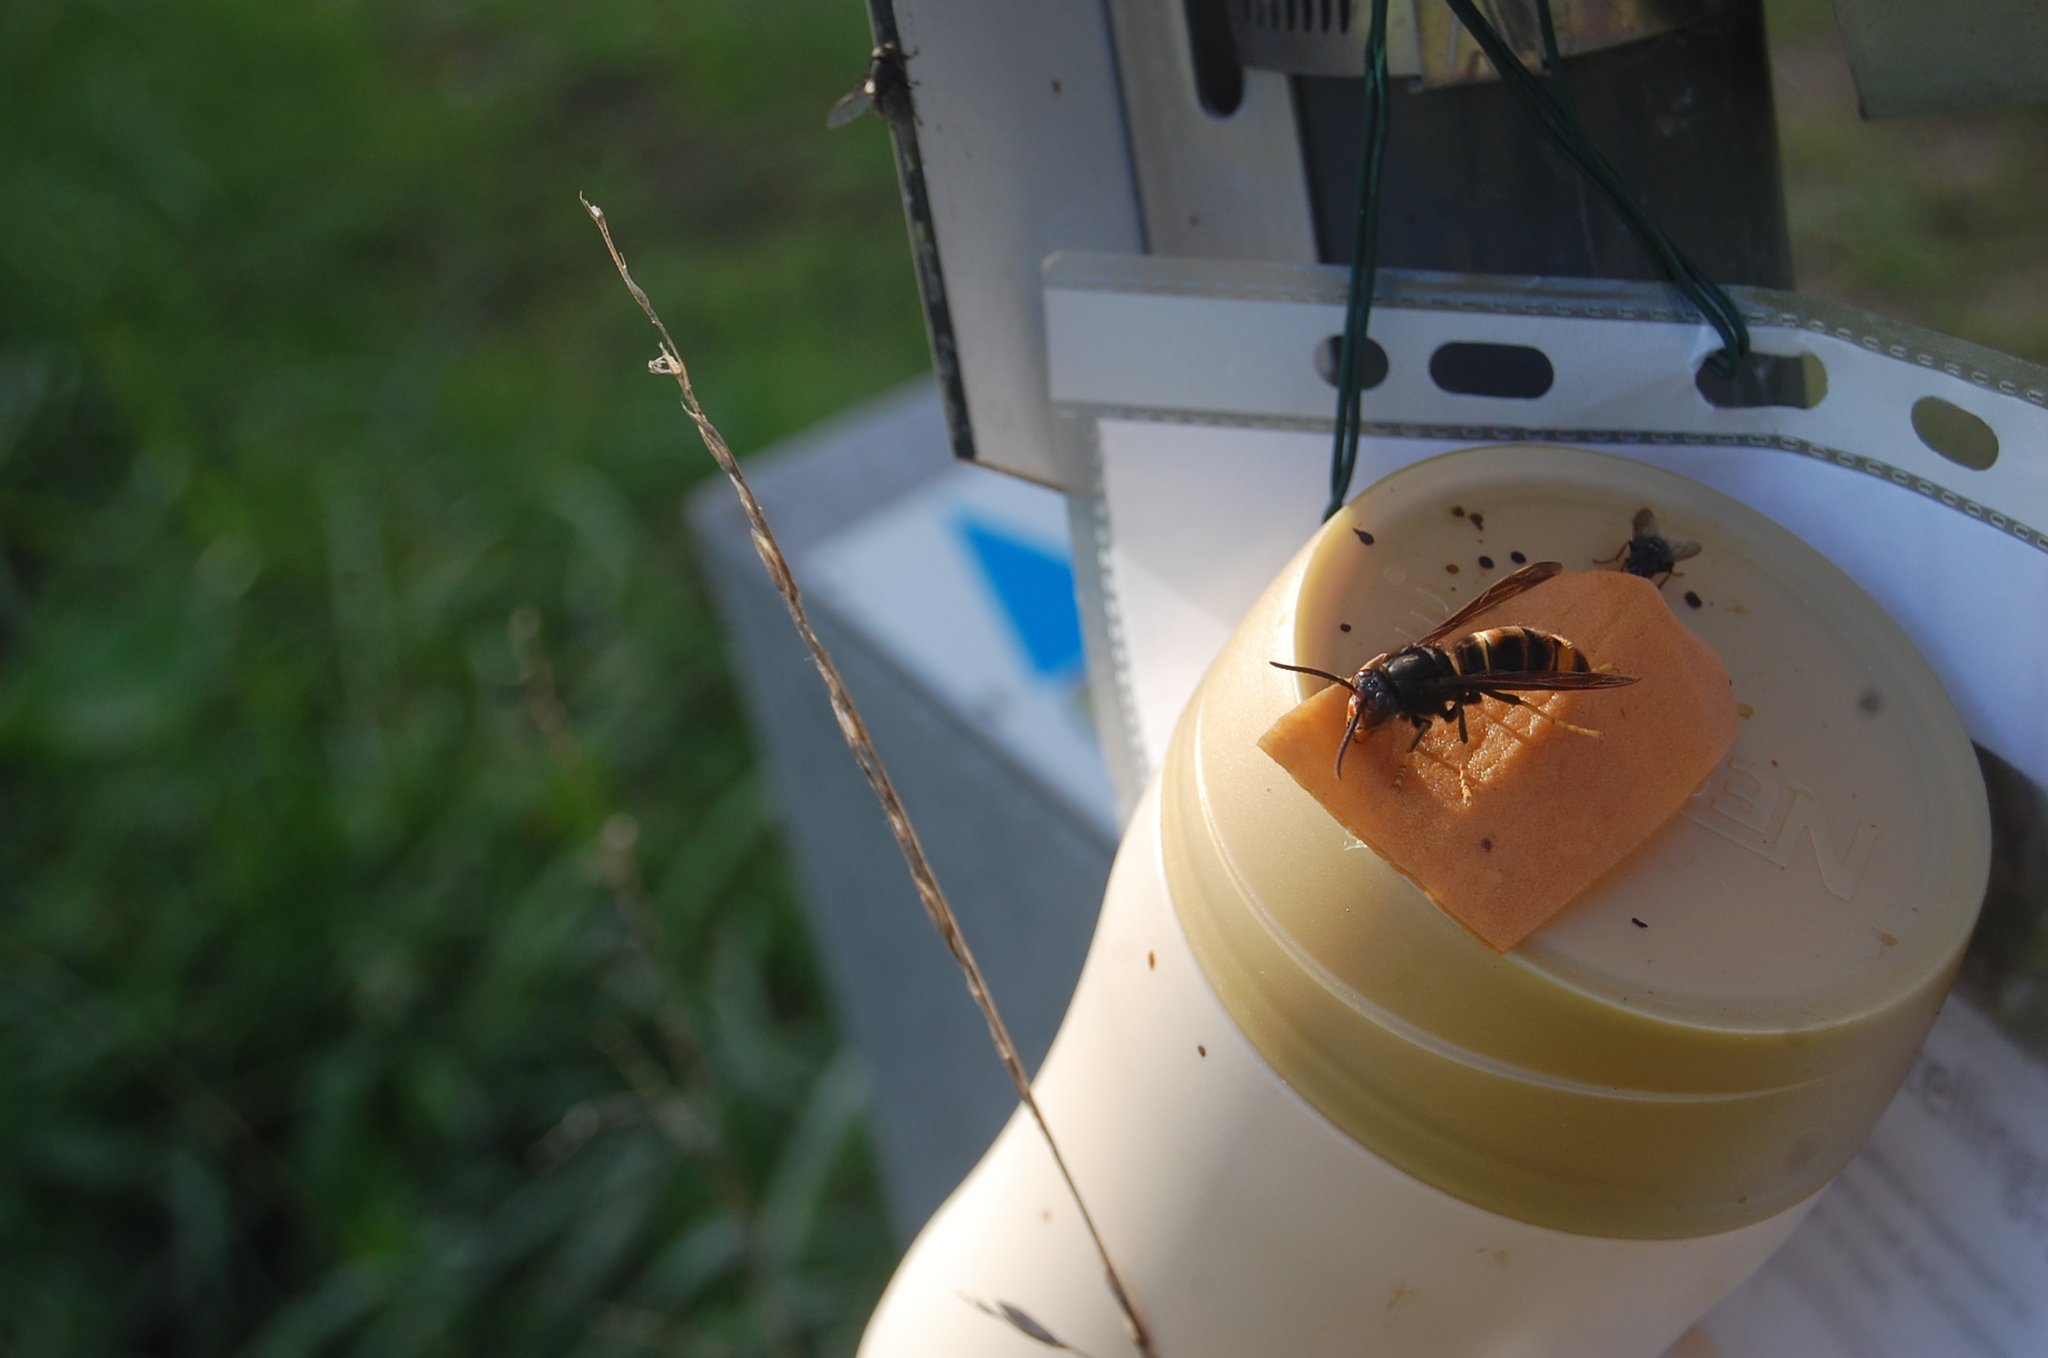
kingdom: Animalia
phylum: Arthropoda
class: Insecta
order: Hymenoptera
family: Vespidae
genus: Vespa
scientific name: Vespa velutina
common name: Asian hornet
